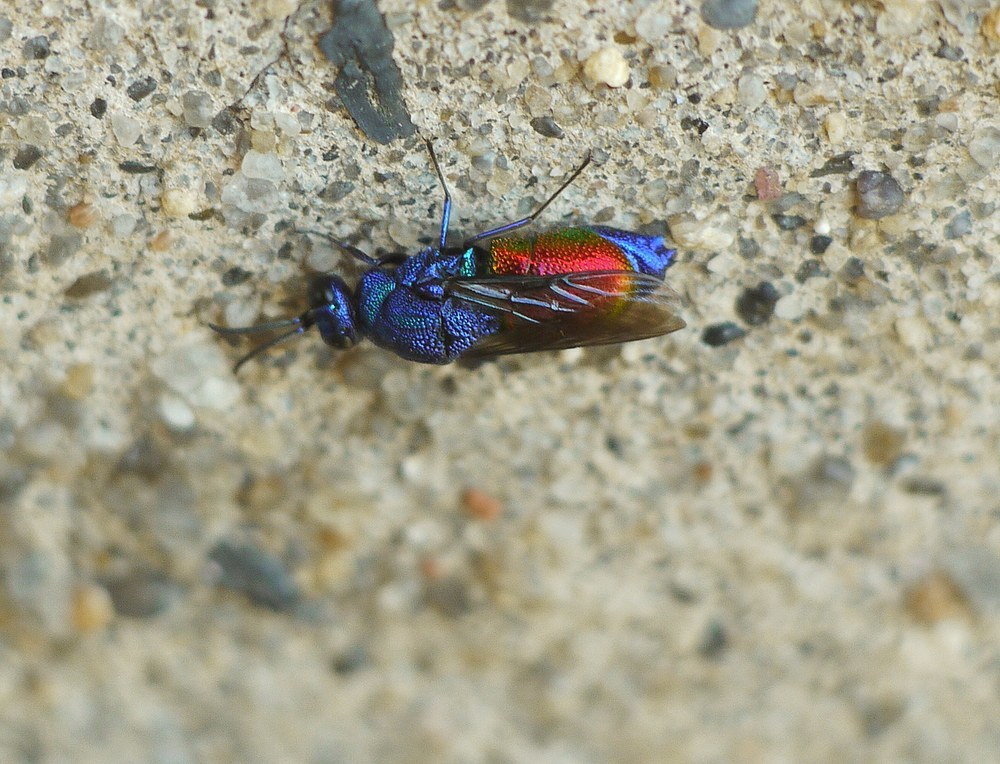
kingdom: Animalia
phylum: Arthropoda
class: Insecta
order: Hymenoptera
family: Chrysididae
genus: Stilbum
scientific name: Stilbum calens
